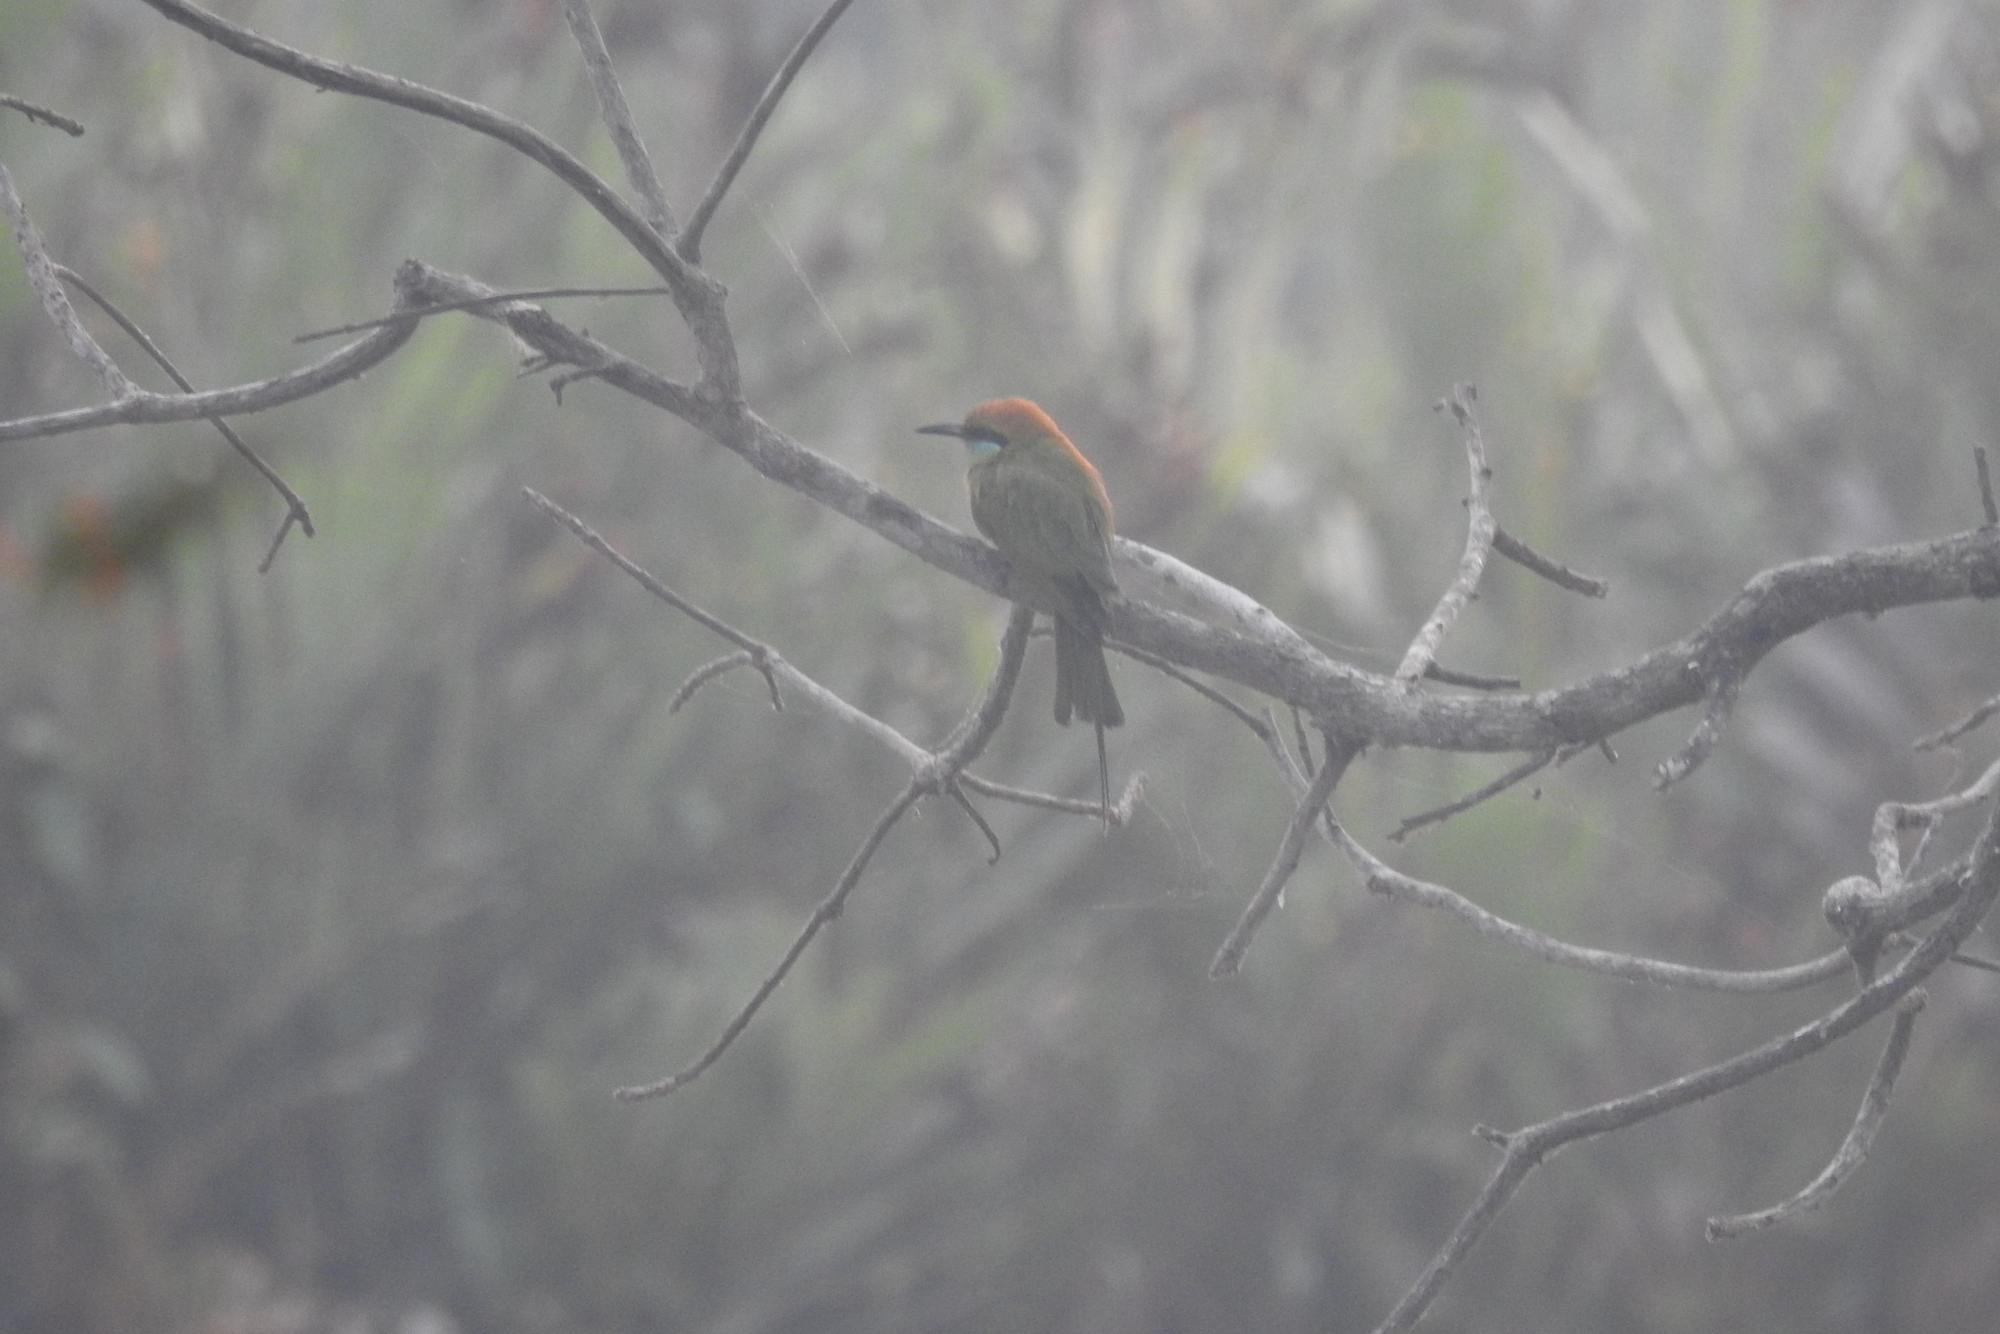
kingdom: Animalia
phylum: Chordata
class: Aves
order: Coraciiformes
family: Meropidae
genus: Merops
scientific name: Merops orientalis
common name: Green bee-eater
